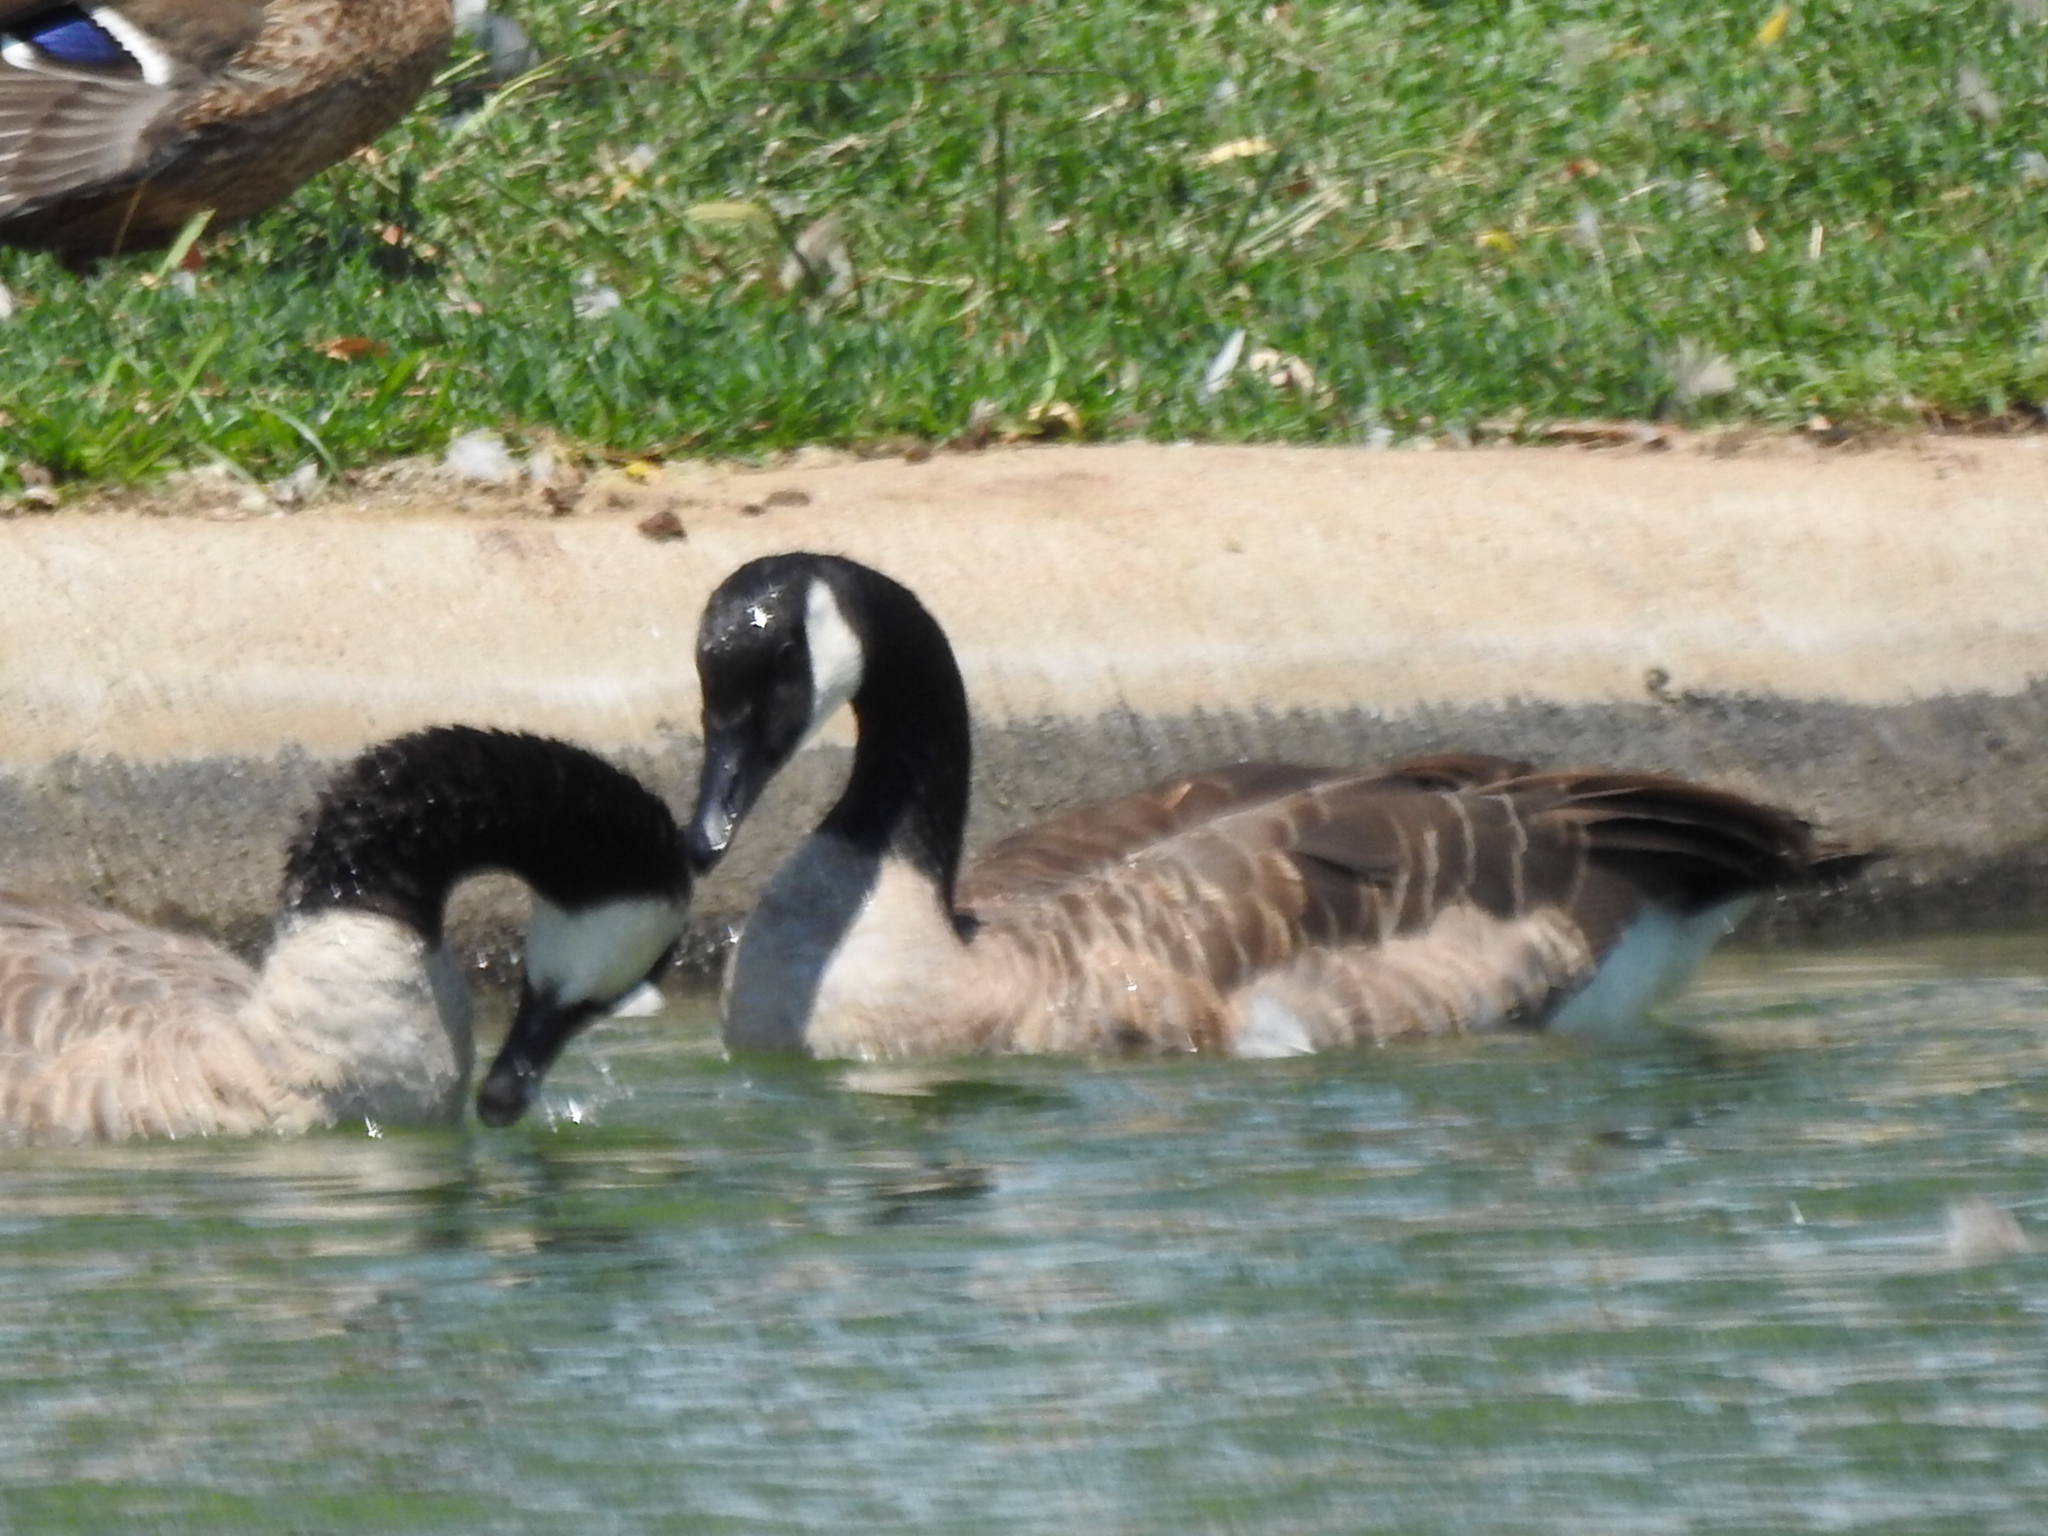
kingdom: Animalia
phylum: Chordata
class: Aves
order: Anseriformes
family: Anatidae
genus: Branta
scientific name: Branta canadensis
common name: Canada goose
